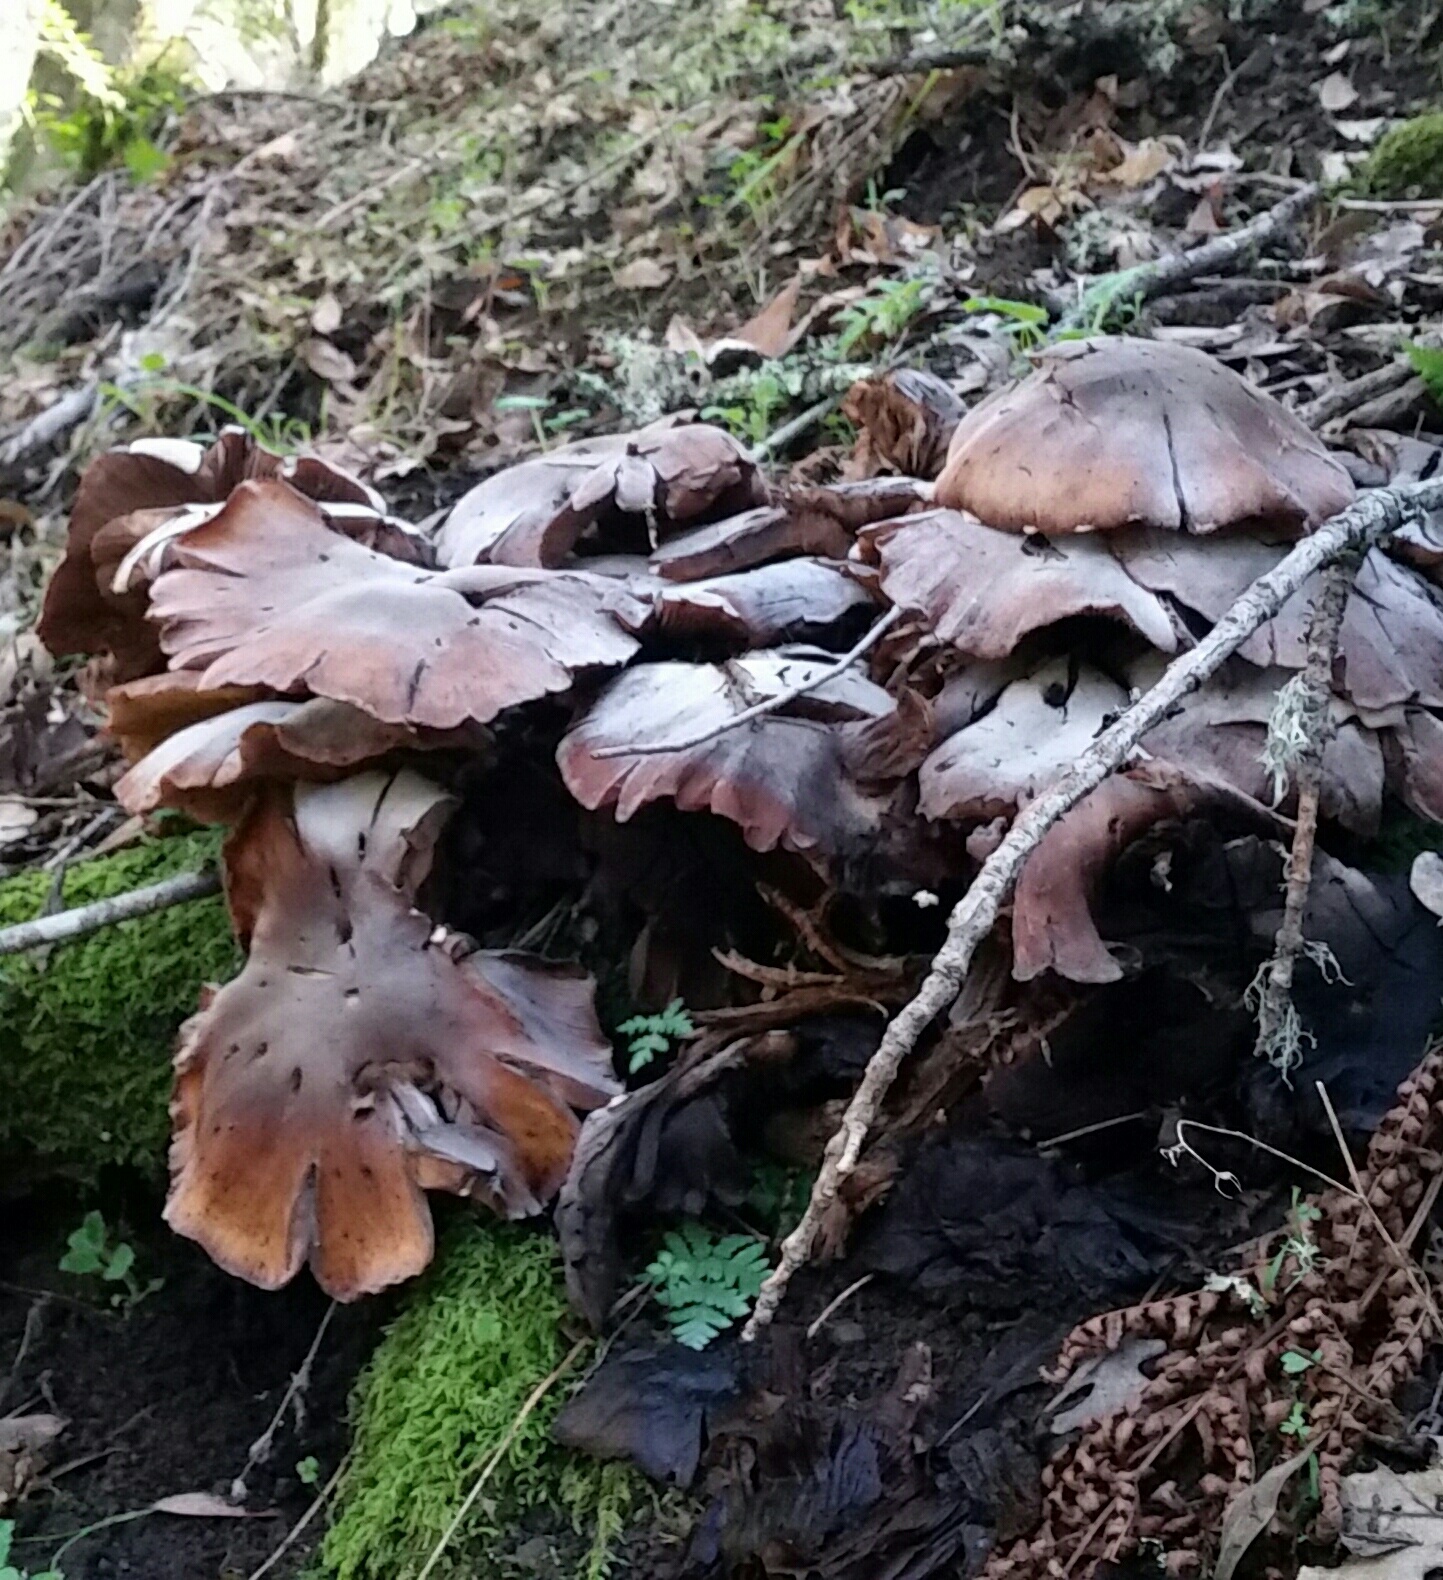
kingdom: Fungi
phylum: Basidiomycota
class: Agaricomycetes
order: Agaricales
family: Physalacriaceae
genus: Armillaria
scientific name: Armillaria mellea
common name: Honey fungus
